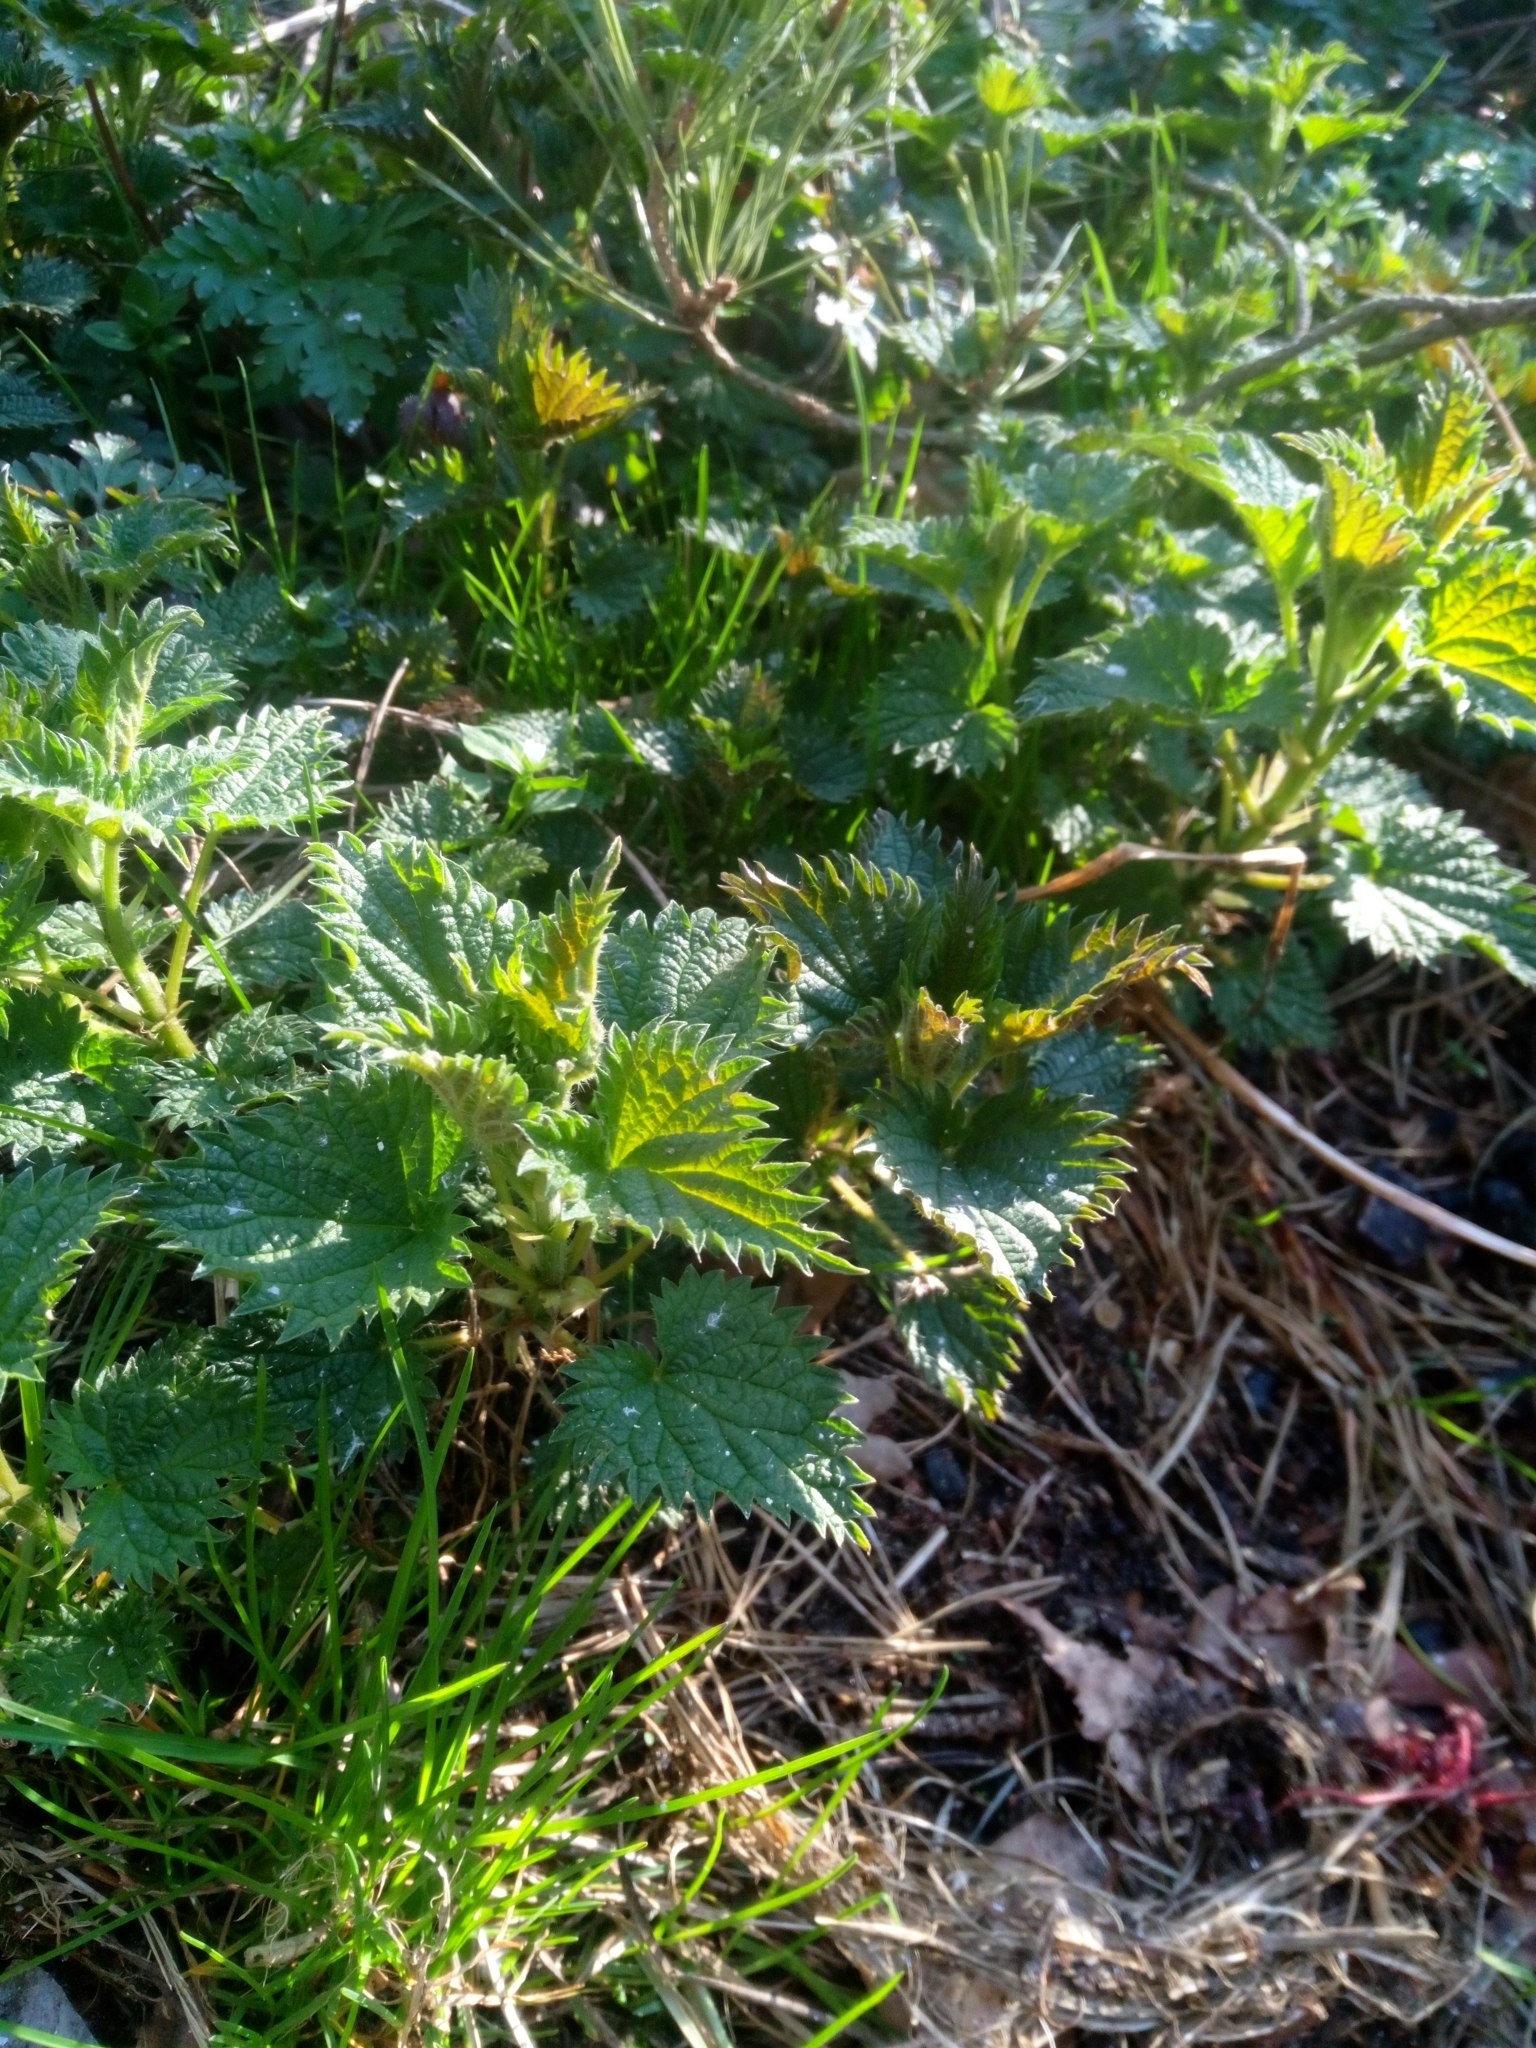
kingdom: Plantae
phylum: Tracheophyta
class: Magnoliopsida
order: Rosales
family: Urticaceae
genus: Urtica
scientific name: Urtica dioica
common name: Common nettle
